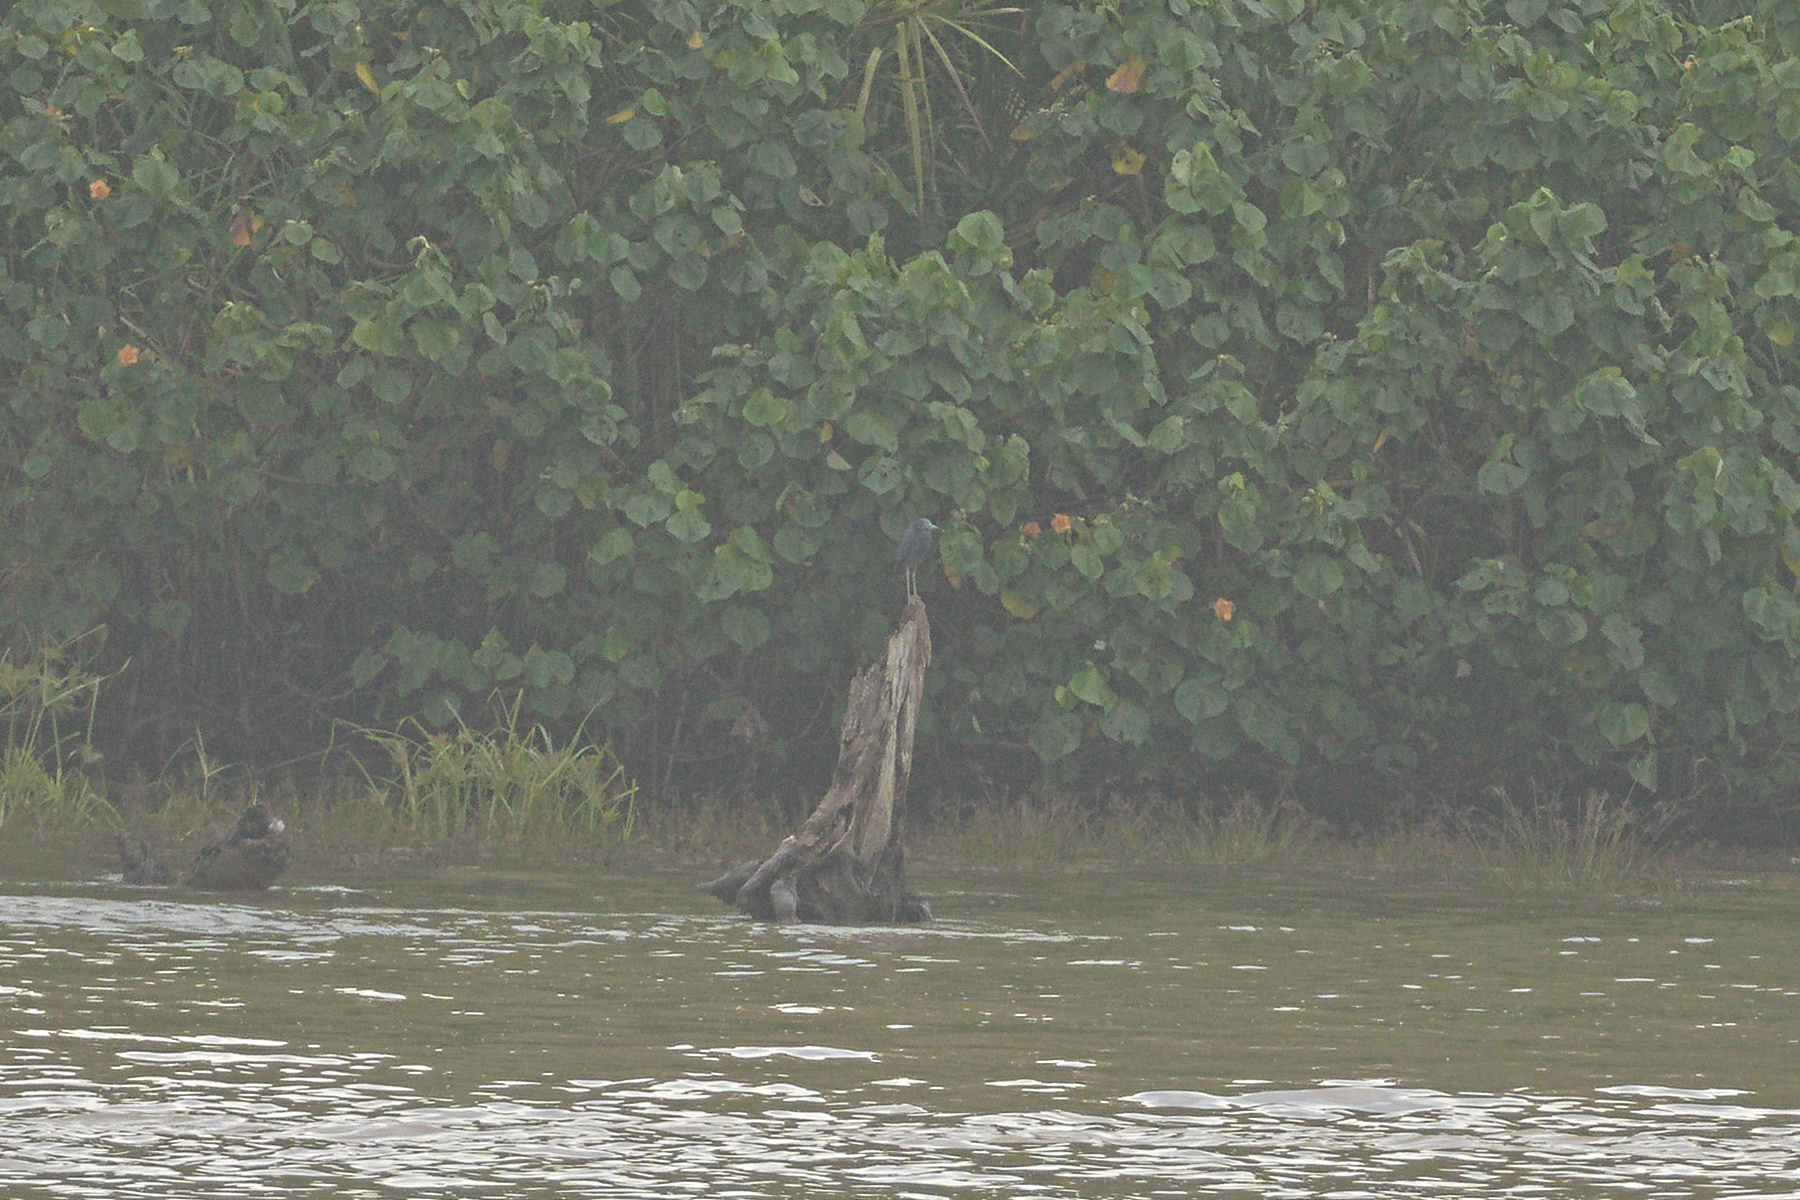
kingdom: Animalia
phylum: Chordata
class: Aves
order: Pelecaniformes
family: Ardeidae
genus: Egretta
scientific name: Egretta caerulea
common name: Little blue heron
